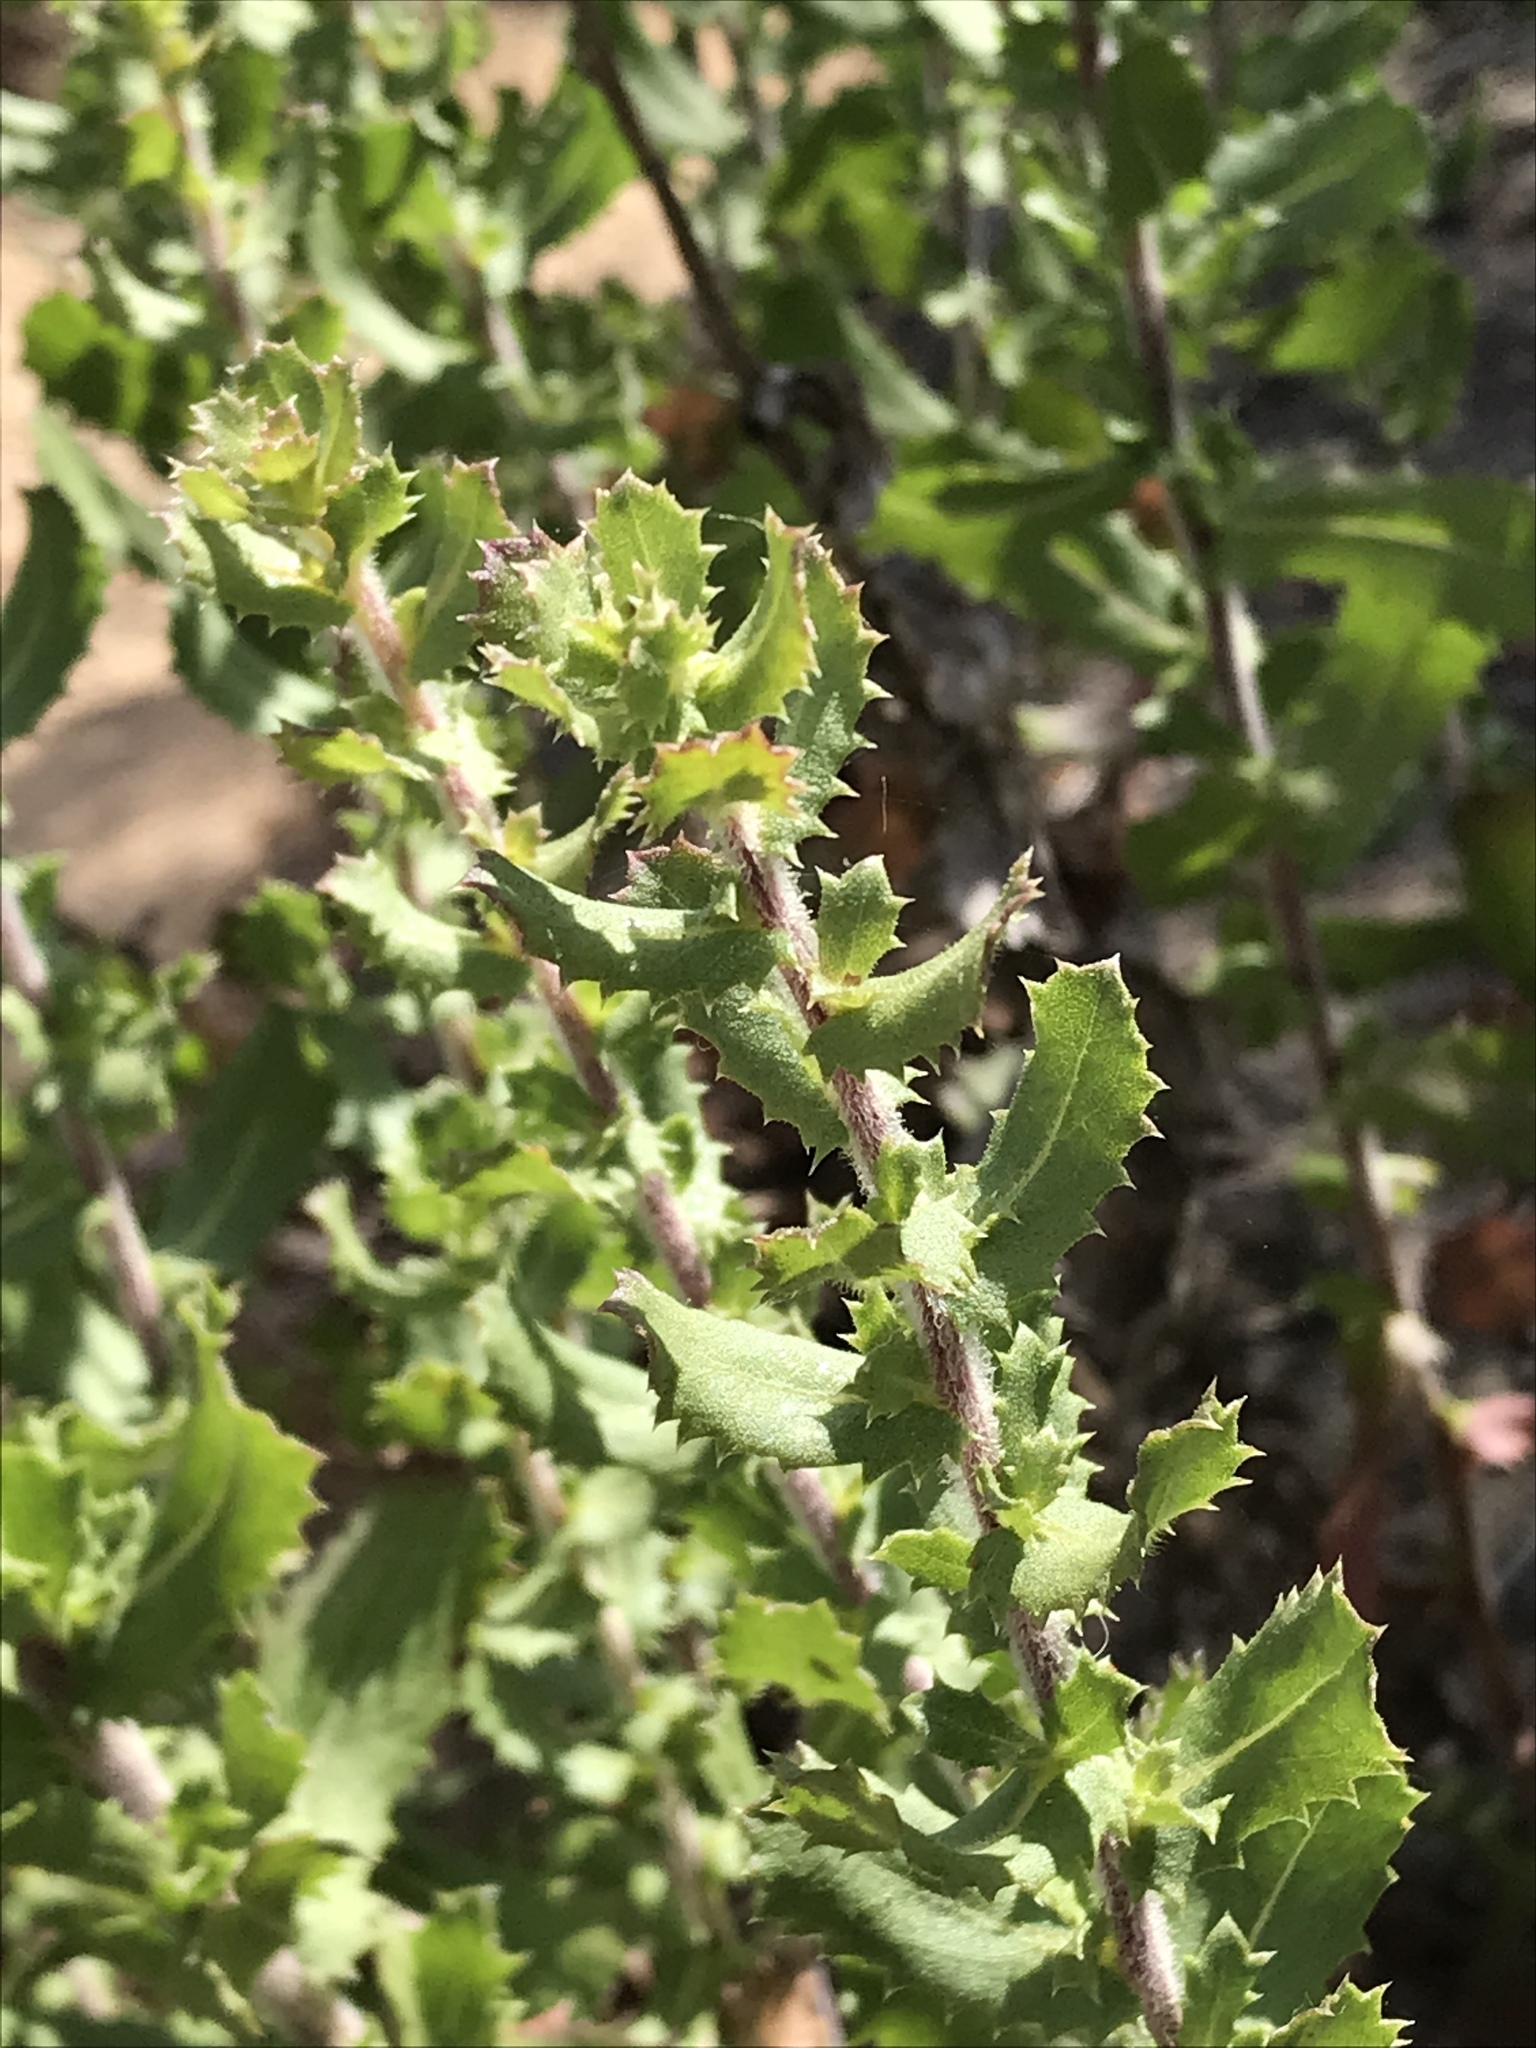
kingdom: Plantae
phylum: Tracheophyta
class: Magnoliopsida
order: Asterales
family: Asteraceae
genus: Hazardia
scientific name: Hazardia squarrosa
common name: Saw-tooth goldenbush
